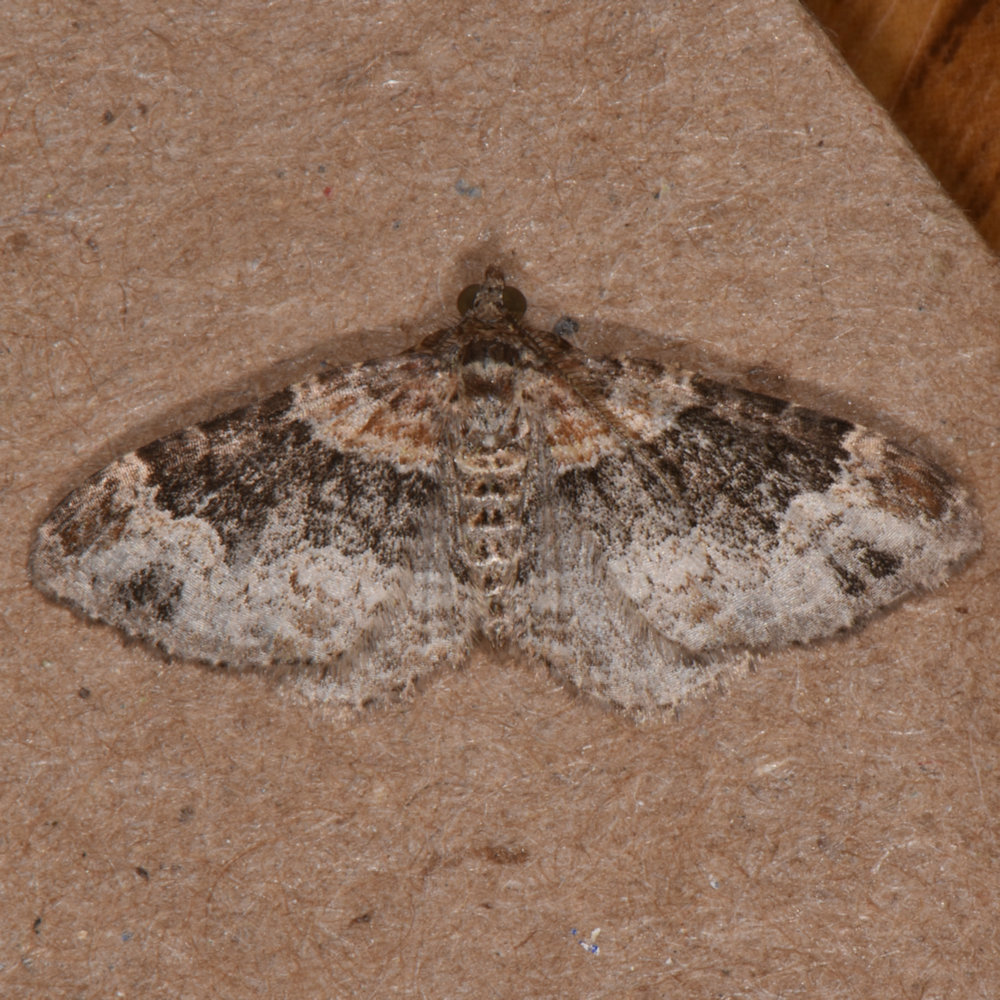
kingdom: Animalia
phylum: Arthropoda
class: Insecta
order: Lepidoptera
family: Geometridae
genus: Xanthorhoe
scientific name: Xanthorhoe ferrugata
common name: Dark-barred twin-spot carpet
